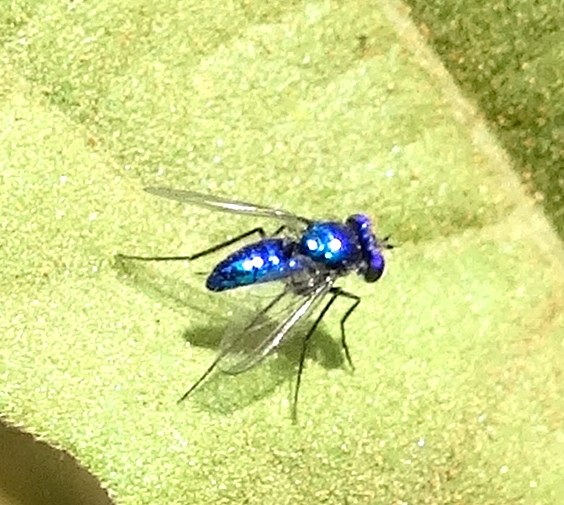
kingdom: Animalia
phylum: Arthropoda
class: Insecta
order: Diptera
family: Dolichopodidae
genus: Condylostylus
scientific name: Condylostylus
